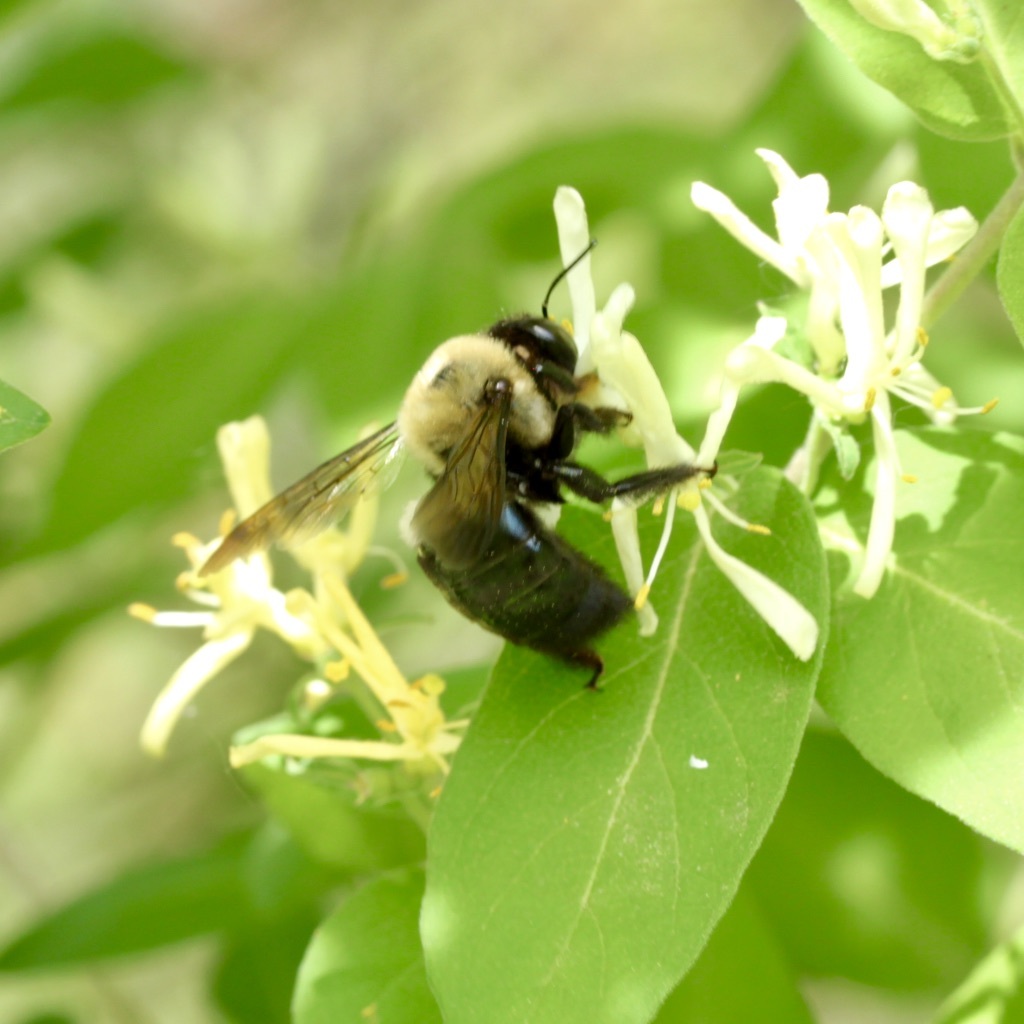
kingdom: Animalia
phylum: Arthropoda
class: Insecta
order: Hymenoptera
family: Apidae
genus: Xylocopa
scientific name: Xylocopa virginica
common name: Carpenter bee
